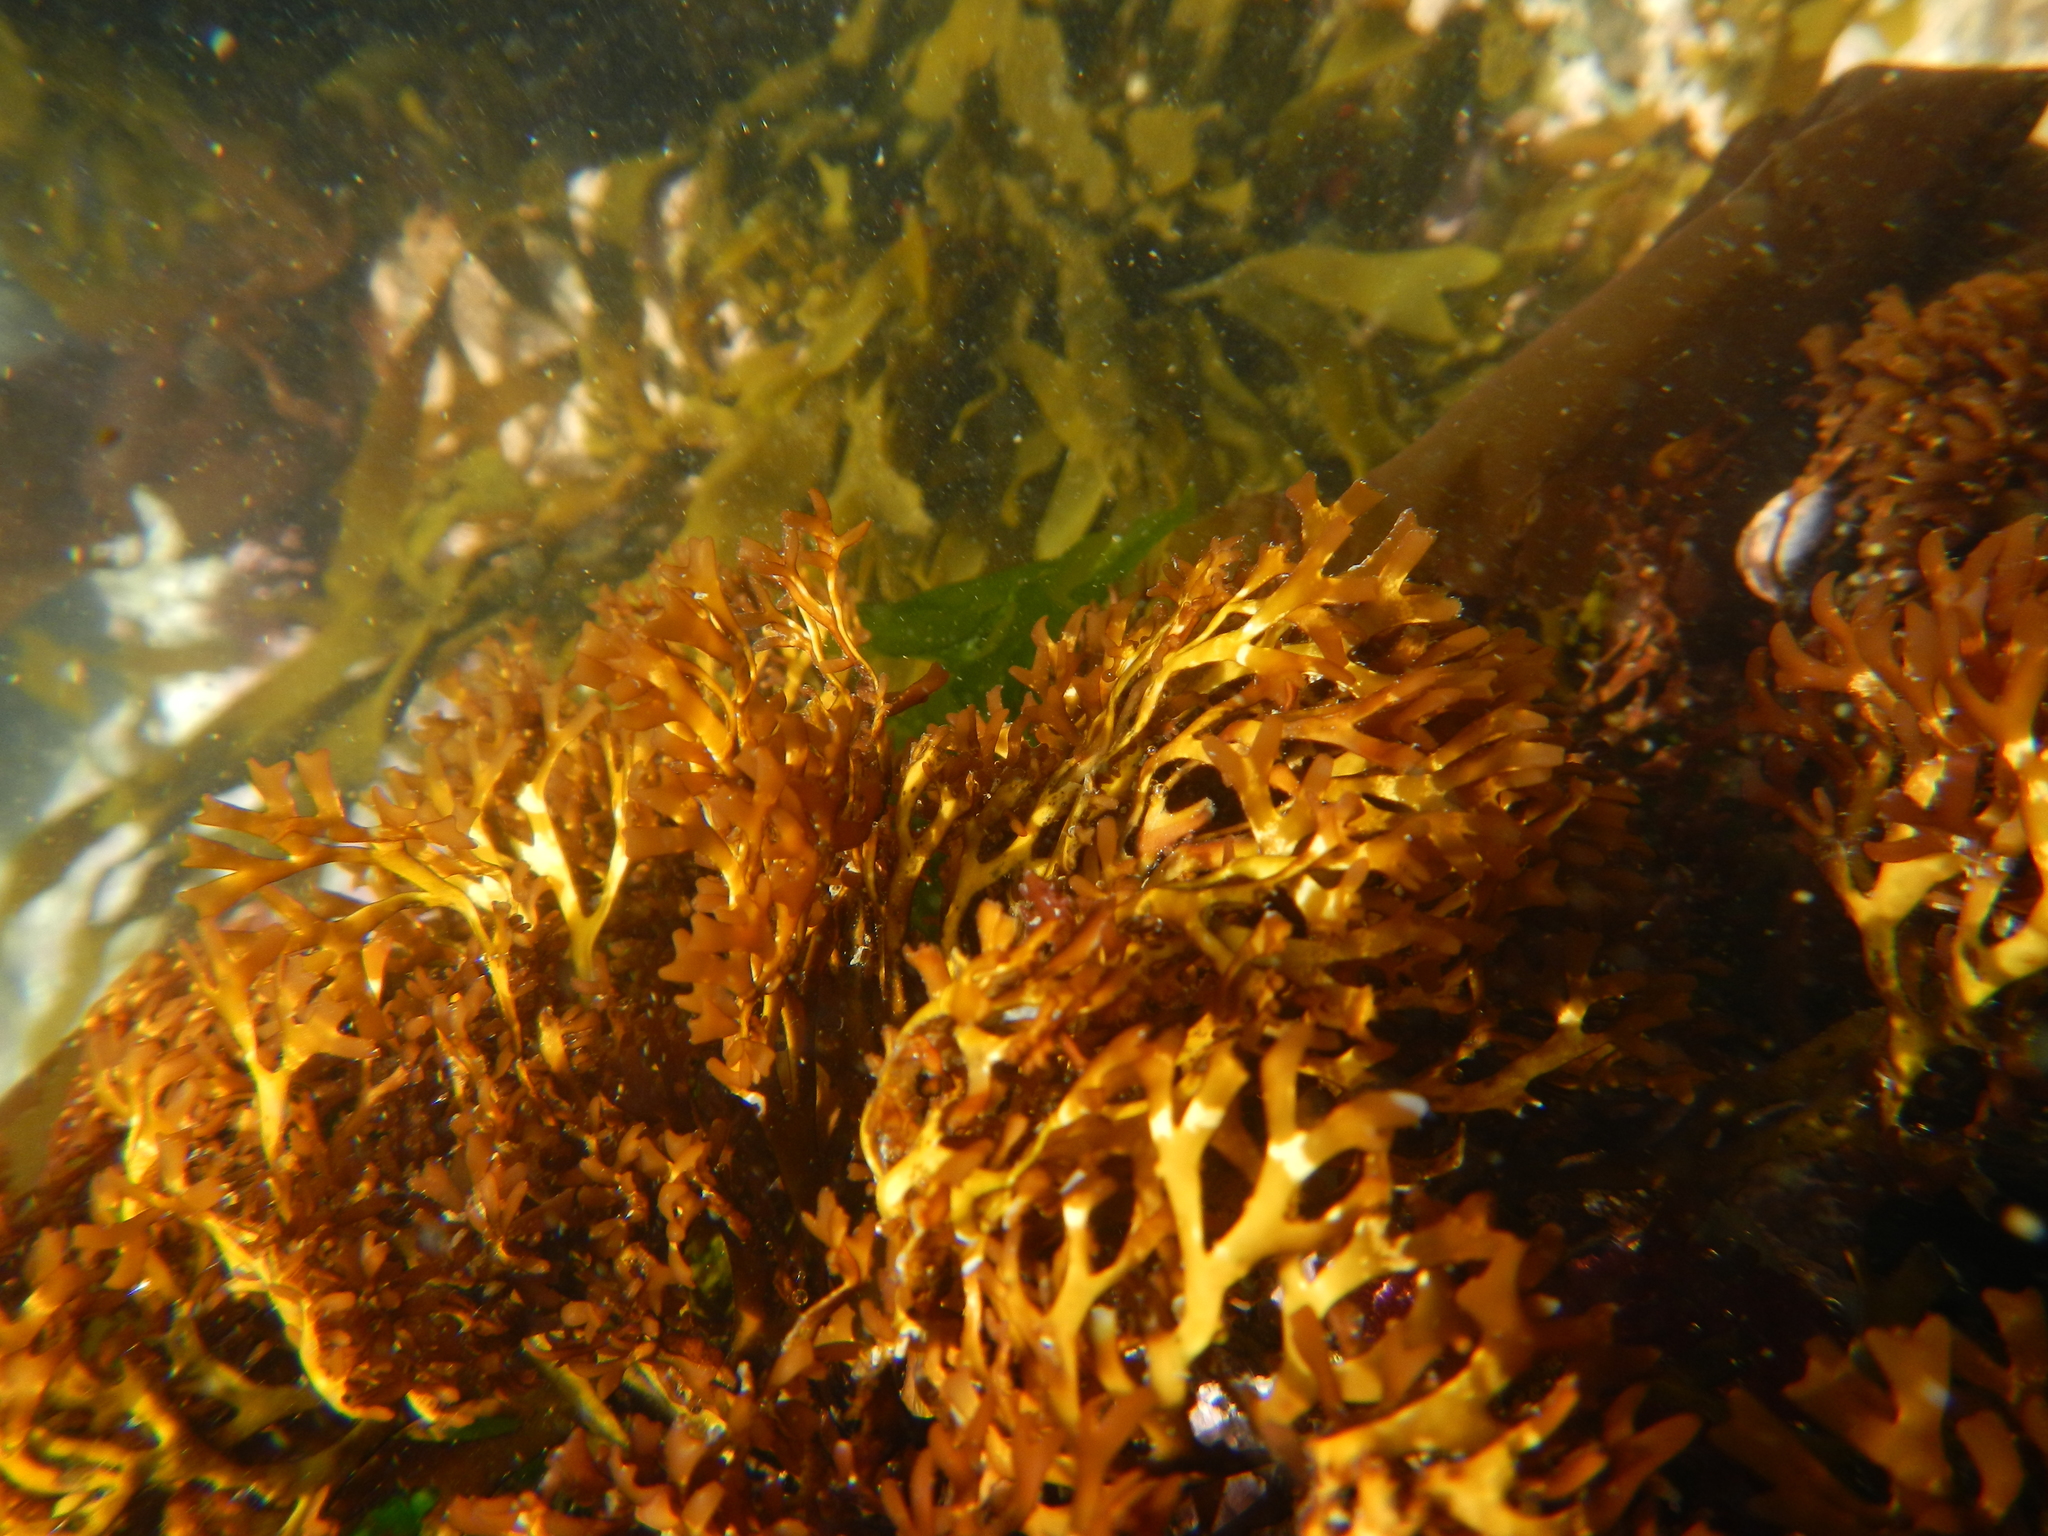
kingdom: Plantae
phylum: Rhodophyta
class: Florideophyceae
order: Gigartinales
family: Sarcodiaceae
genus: Trematocarpus
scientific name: Trematocarpus
